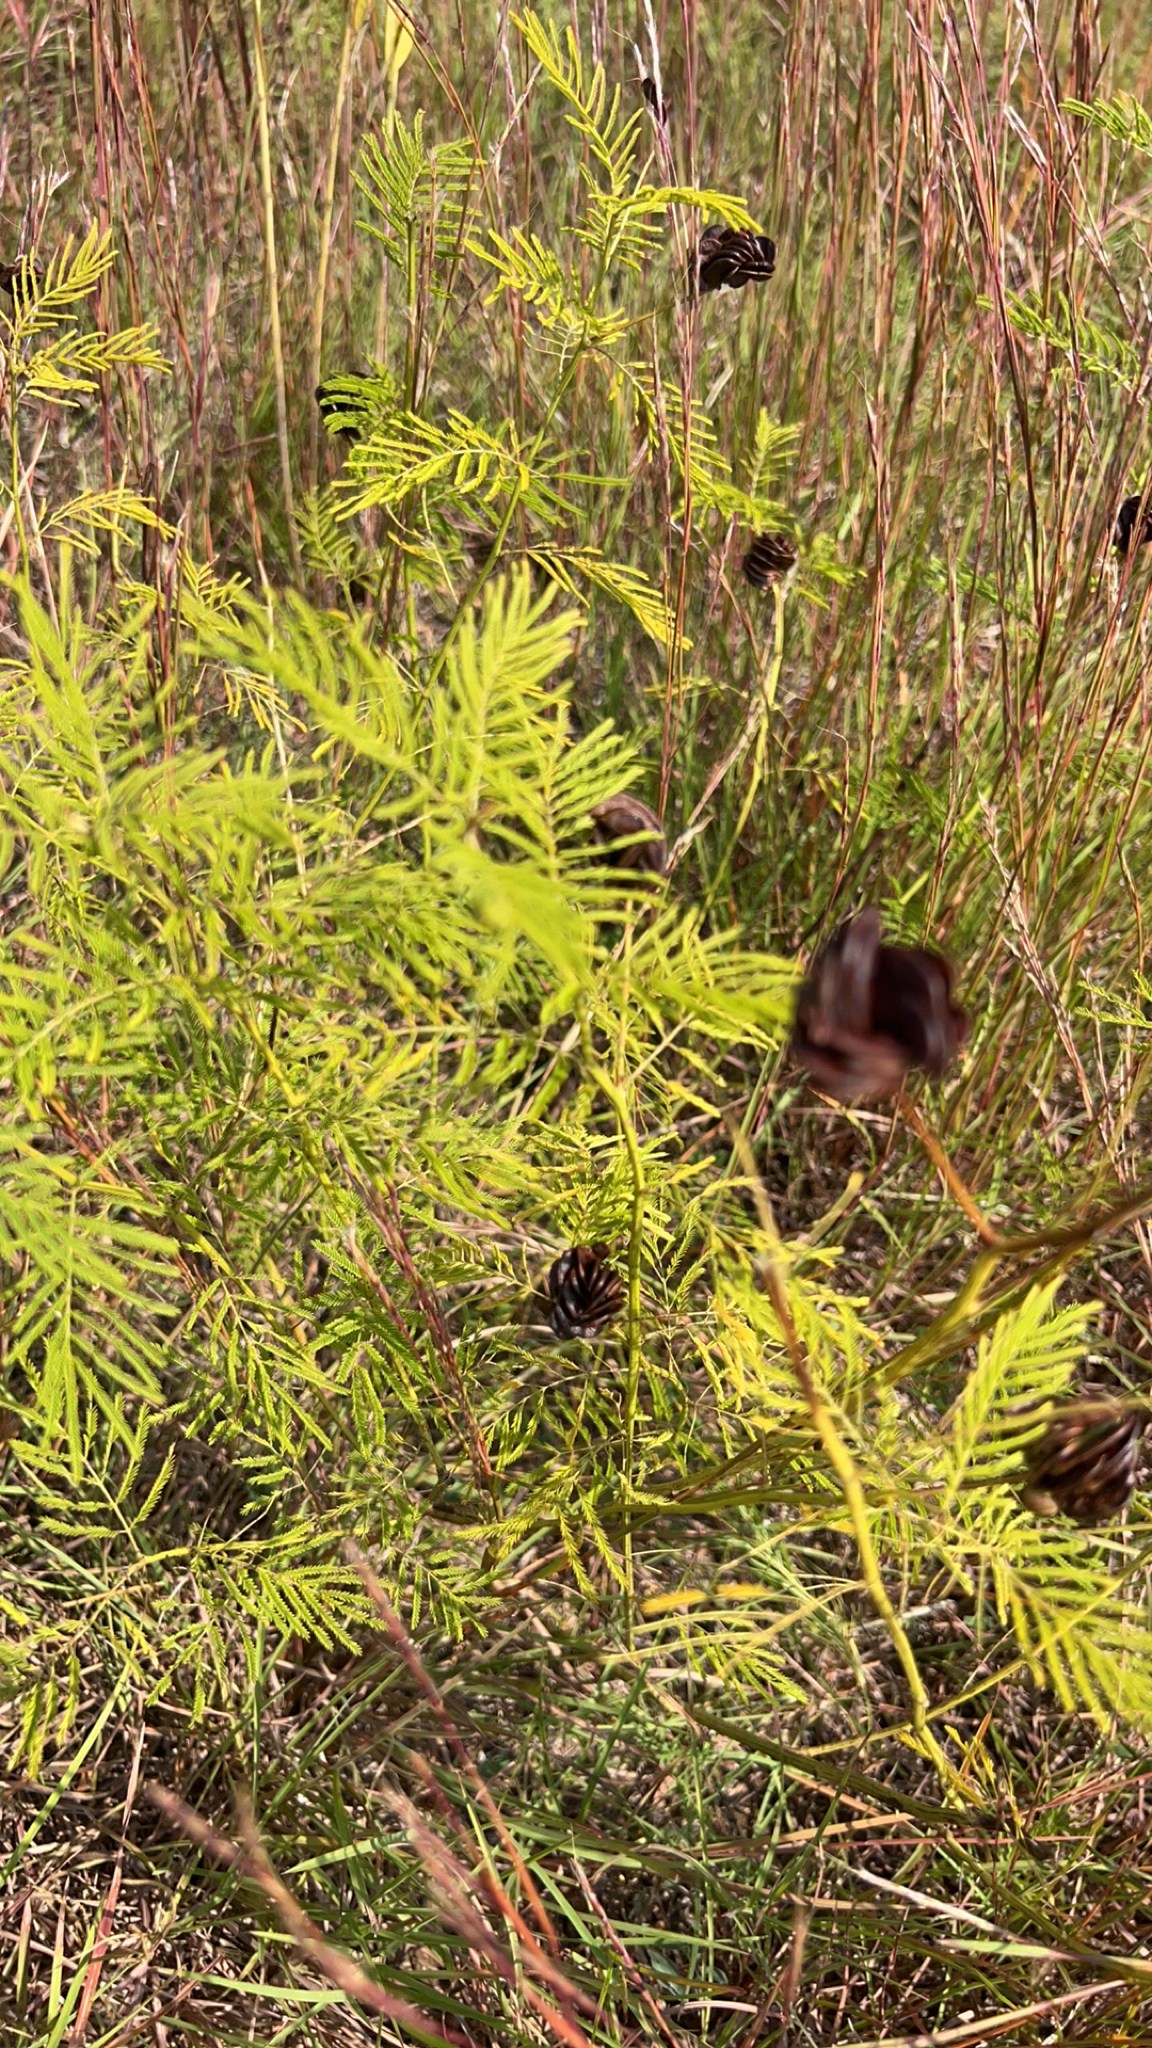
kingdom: Plantae
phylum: Tracheophyta
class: Magnoliopsida
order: Fabales
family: Fabaceae
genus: Desmanthus
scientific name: Desmanthus illinoensis
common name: Illinois bundle-flower
